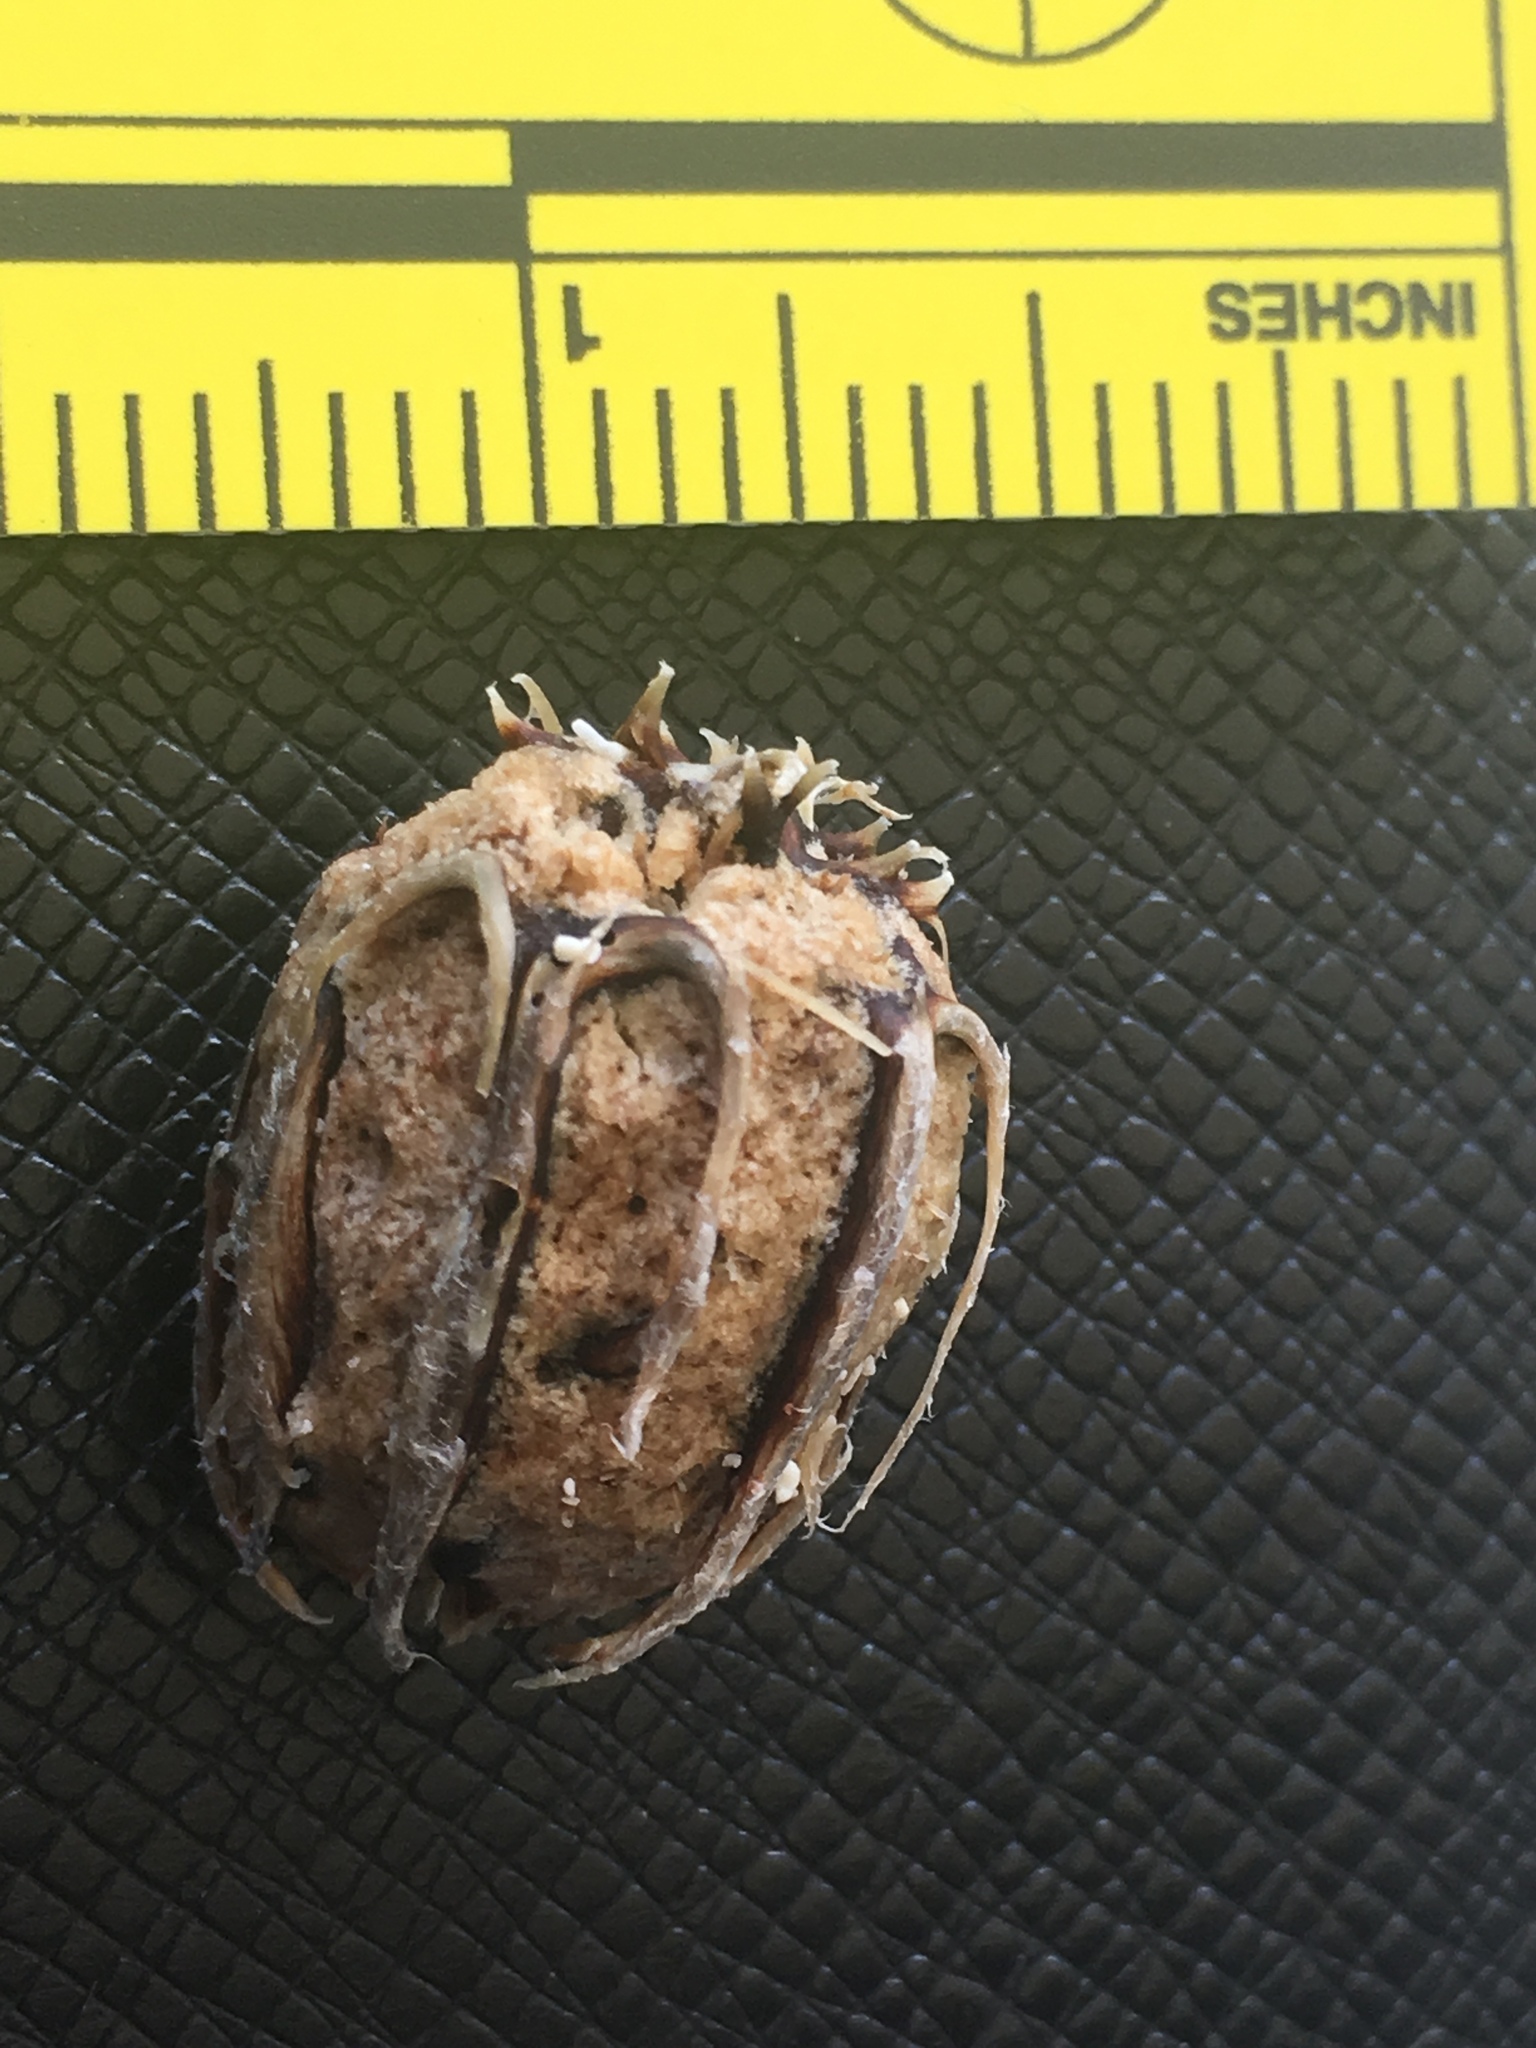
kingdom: Plantae
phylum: Tracheophyta
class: Magnoliopsida
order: Ericales
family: Lecythidaceae
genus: Grias
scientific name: Grias cauliflora
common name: Anchovy-pear
